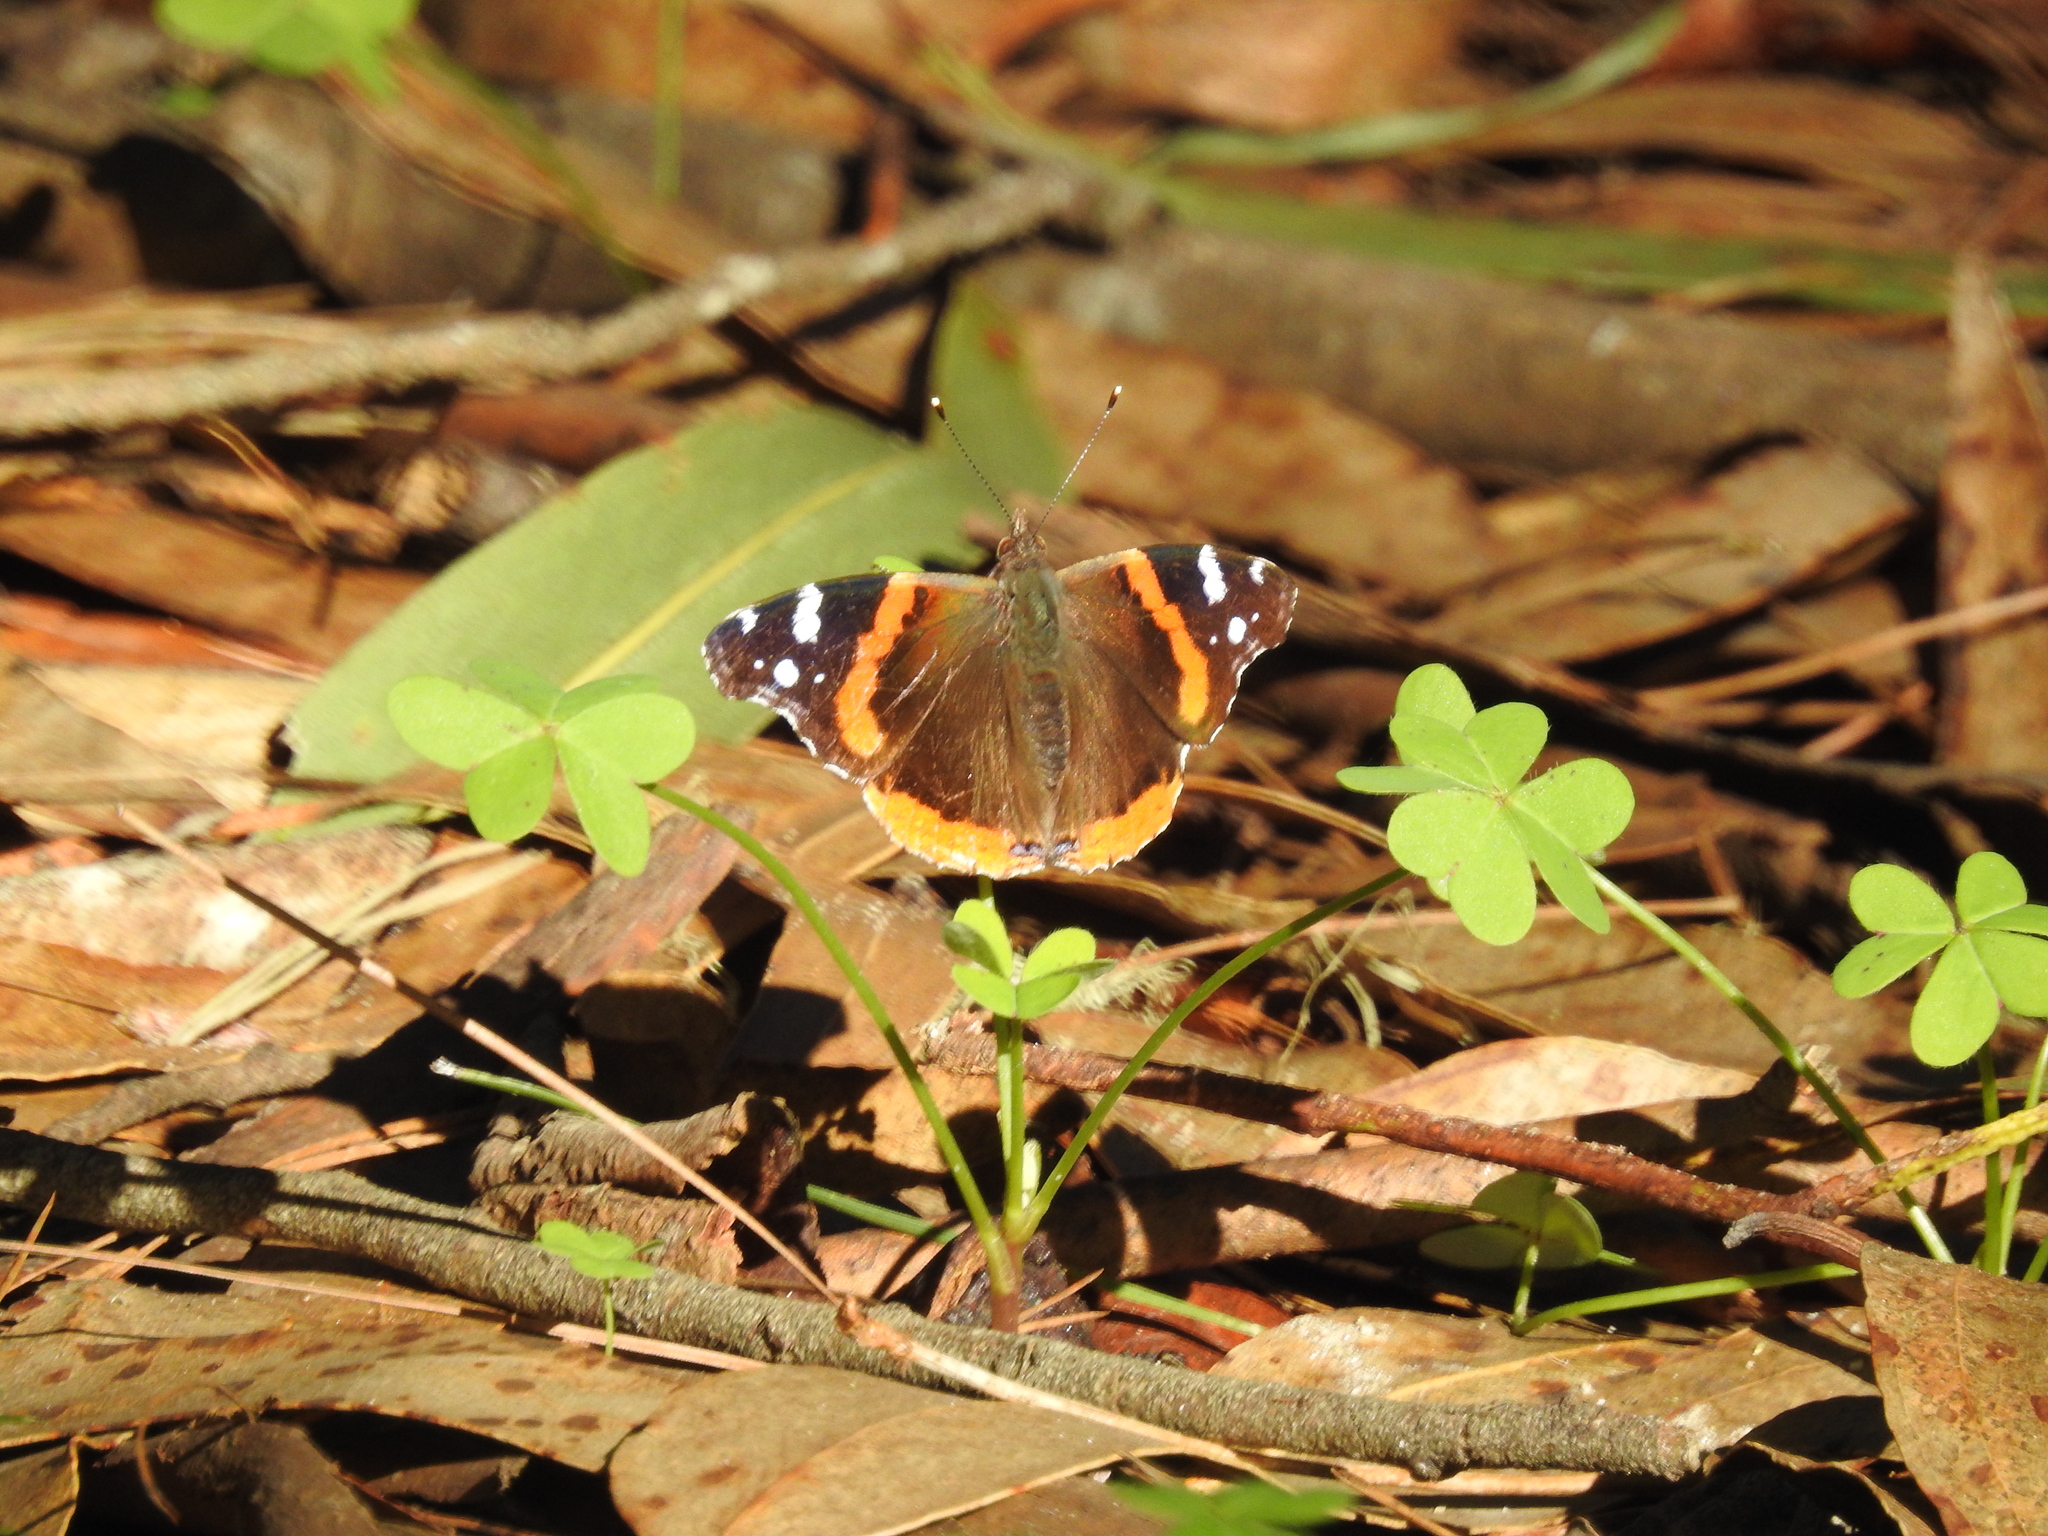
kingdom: Animalia
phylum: Arthropoda
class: Insecta
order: Lepidoptera
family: Nymphalidae
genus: Vanessa
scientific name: Vanessa atalanta
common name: Red admiral
